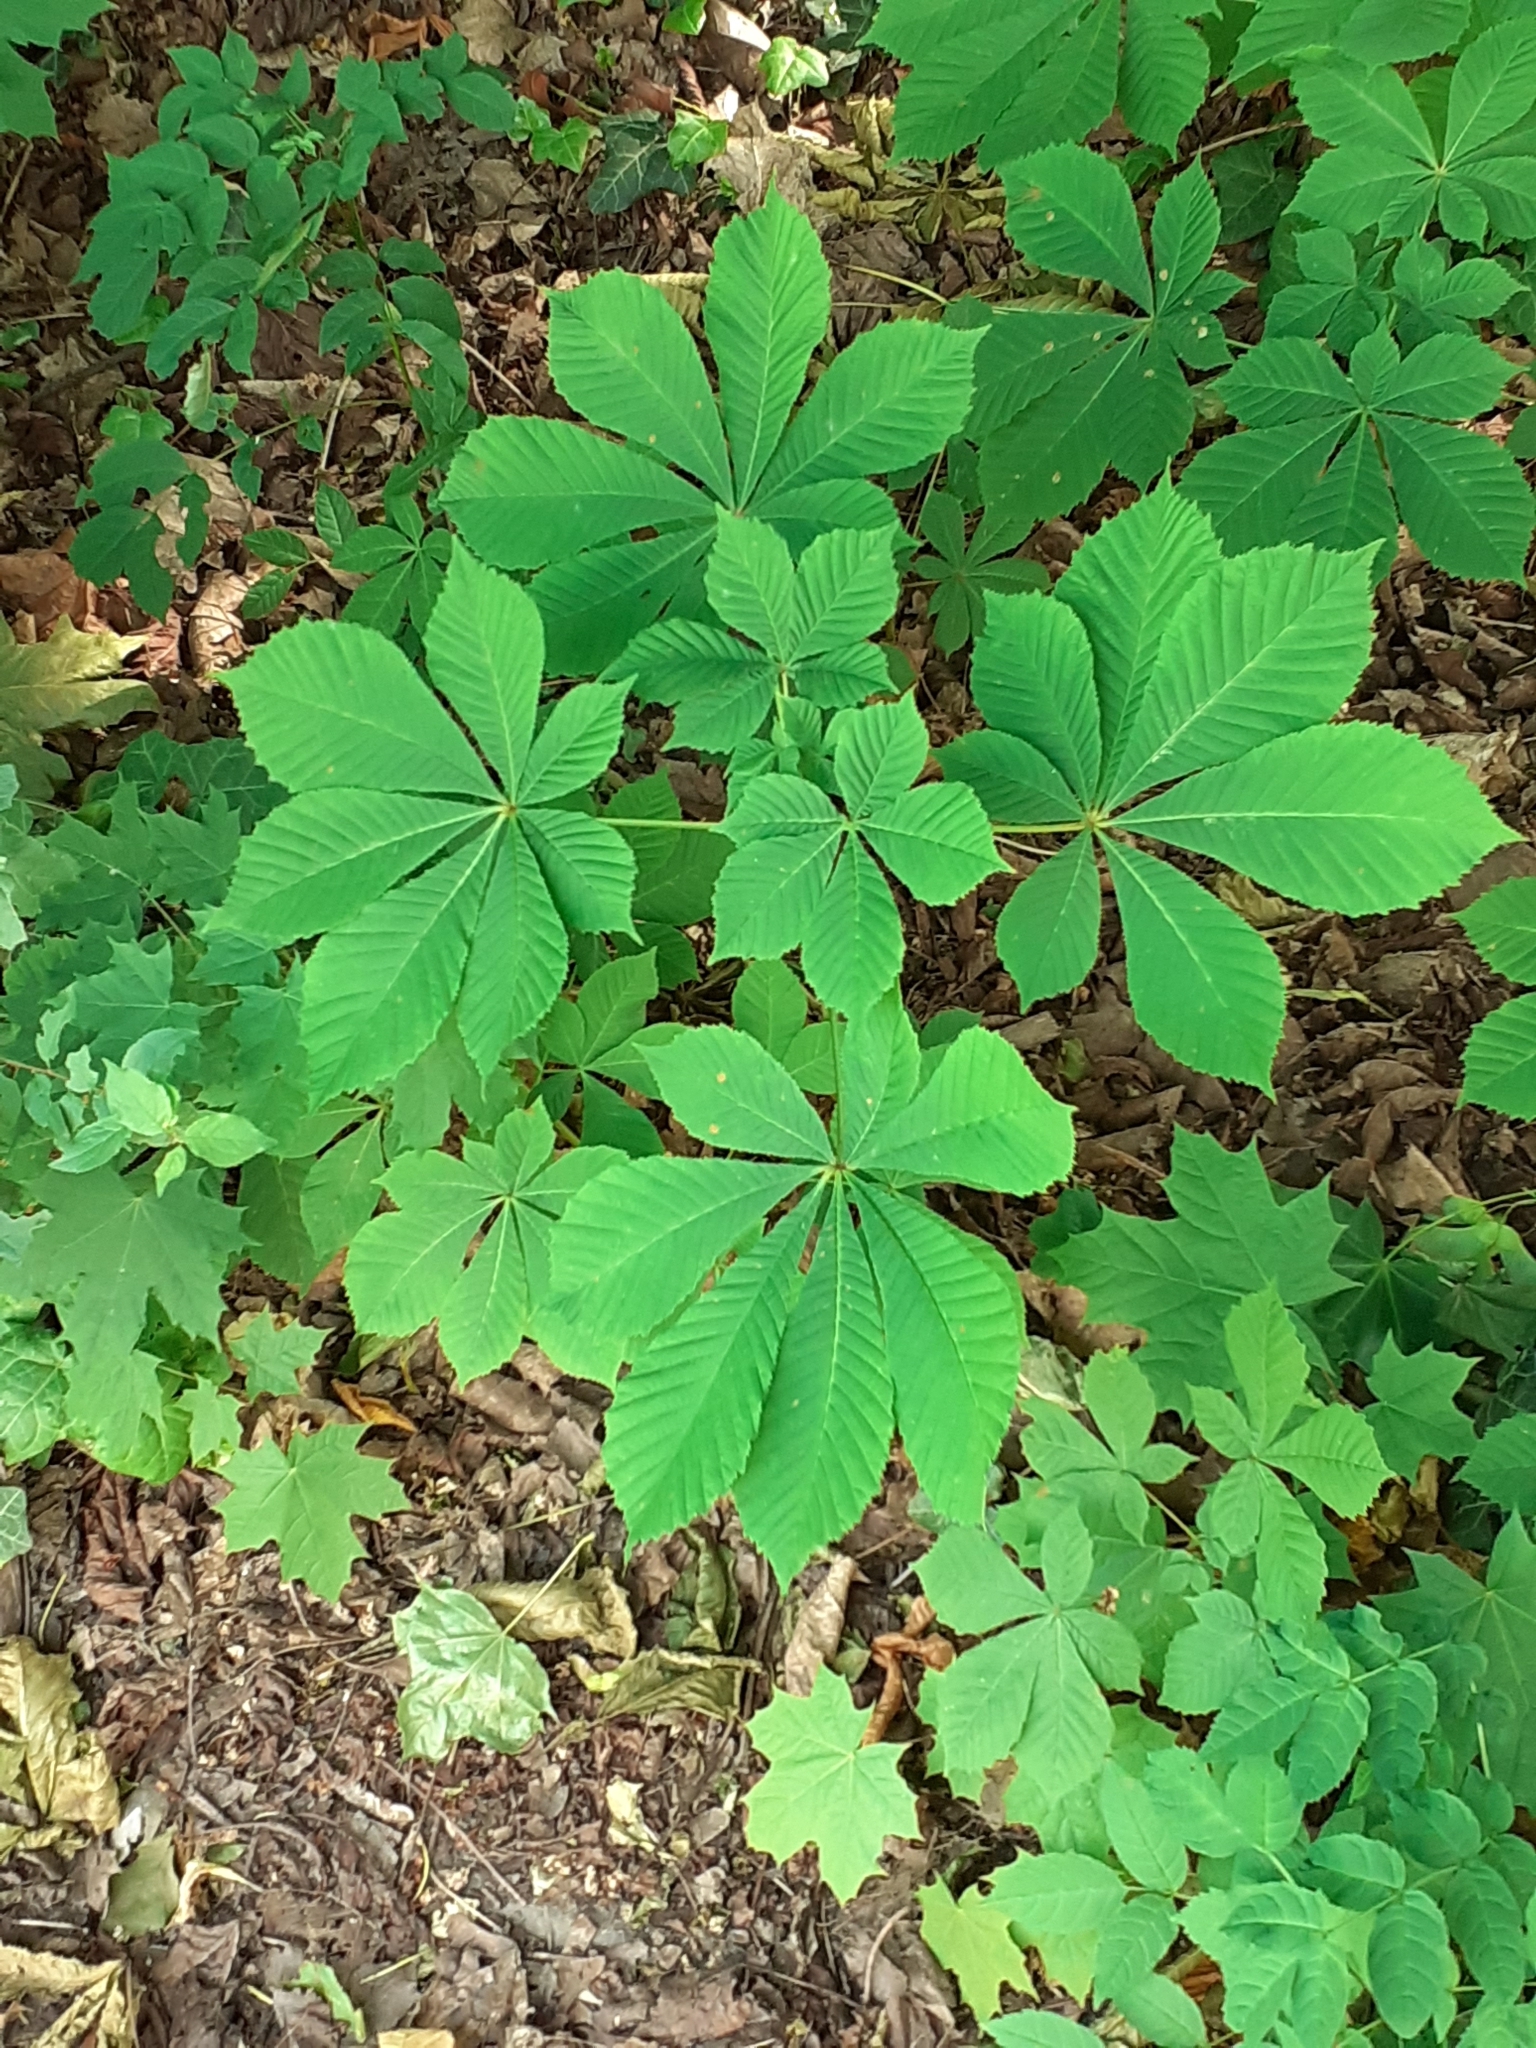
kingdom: Plantae
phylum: Tracheophyta
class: Magnoliopsida
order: Sapindales
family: Sapindaceae
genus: Aesculus
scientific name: Aesculus hippocastanum
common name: Horse-chestnut
